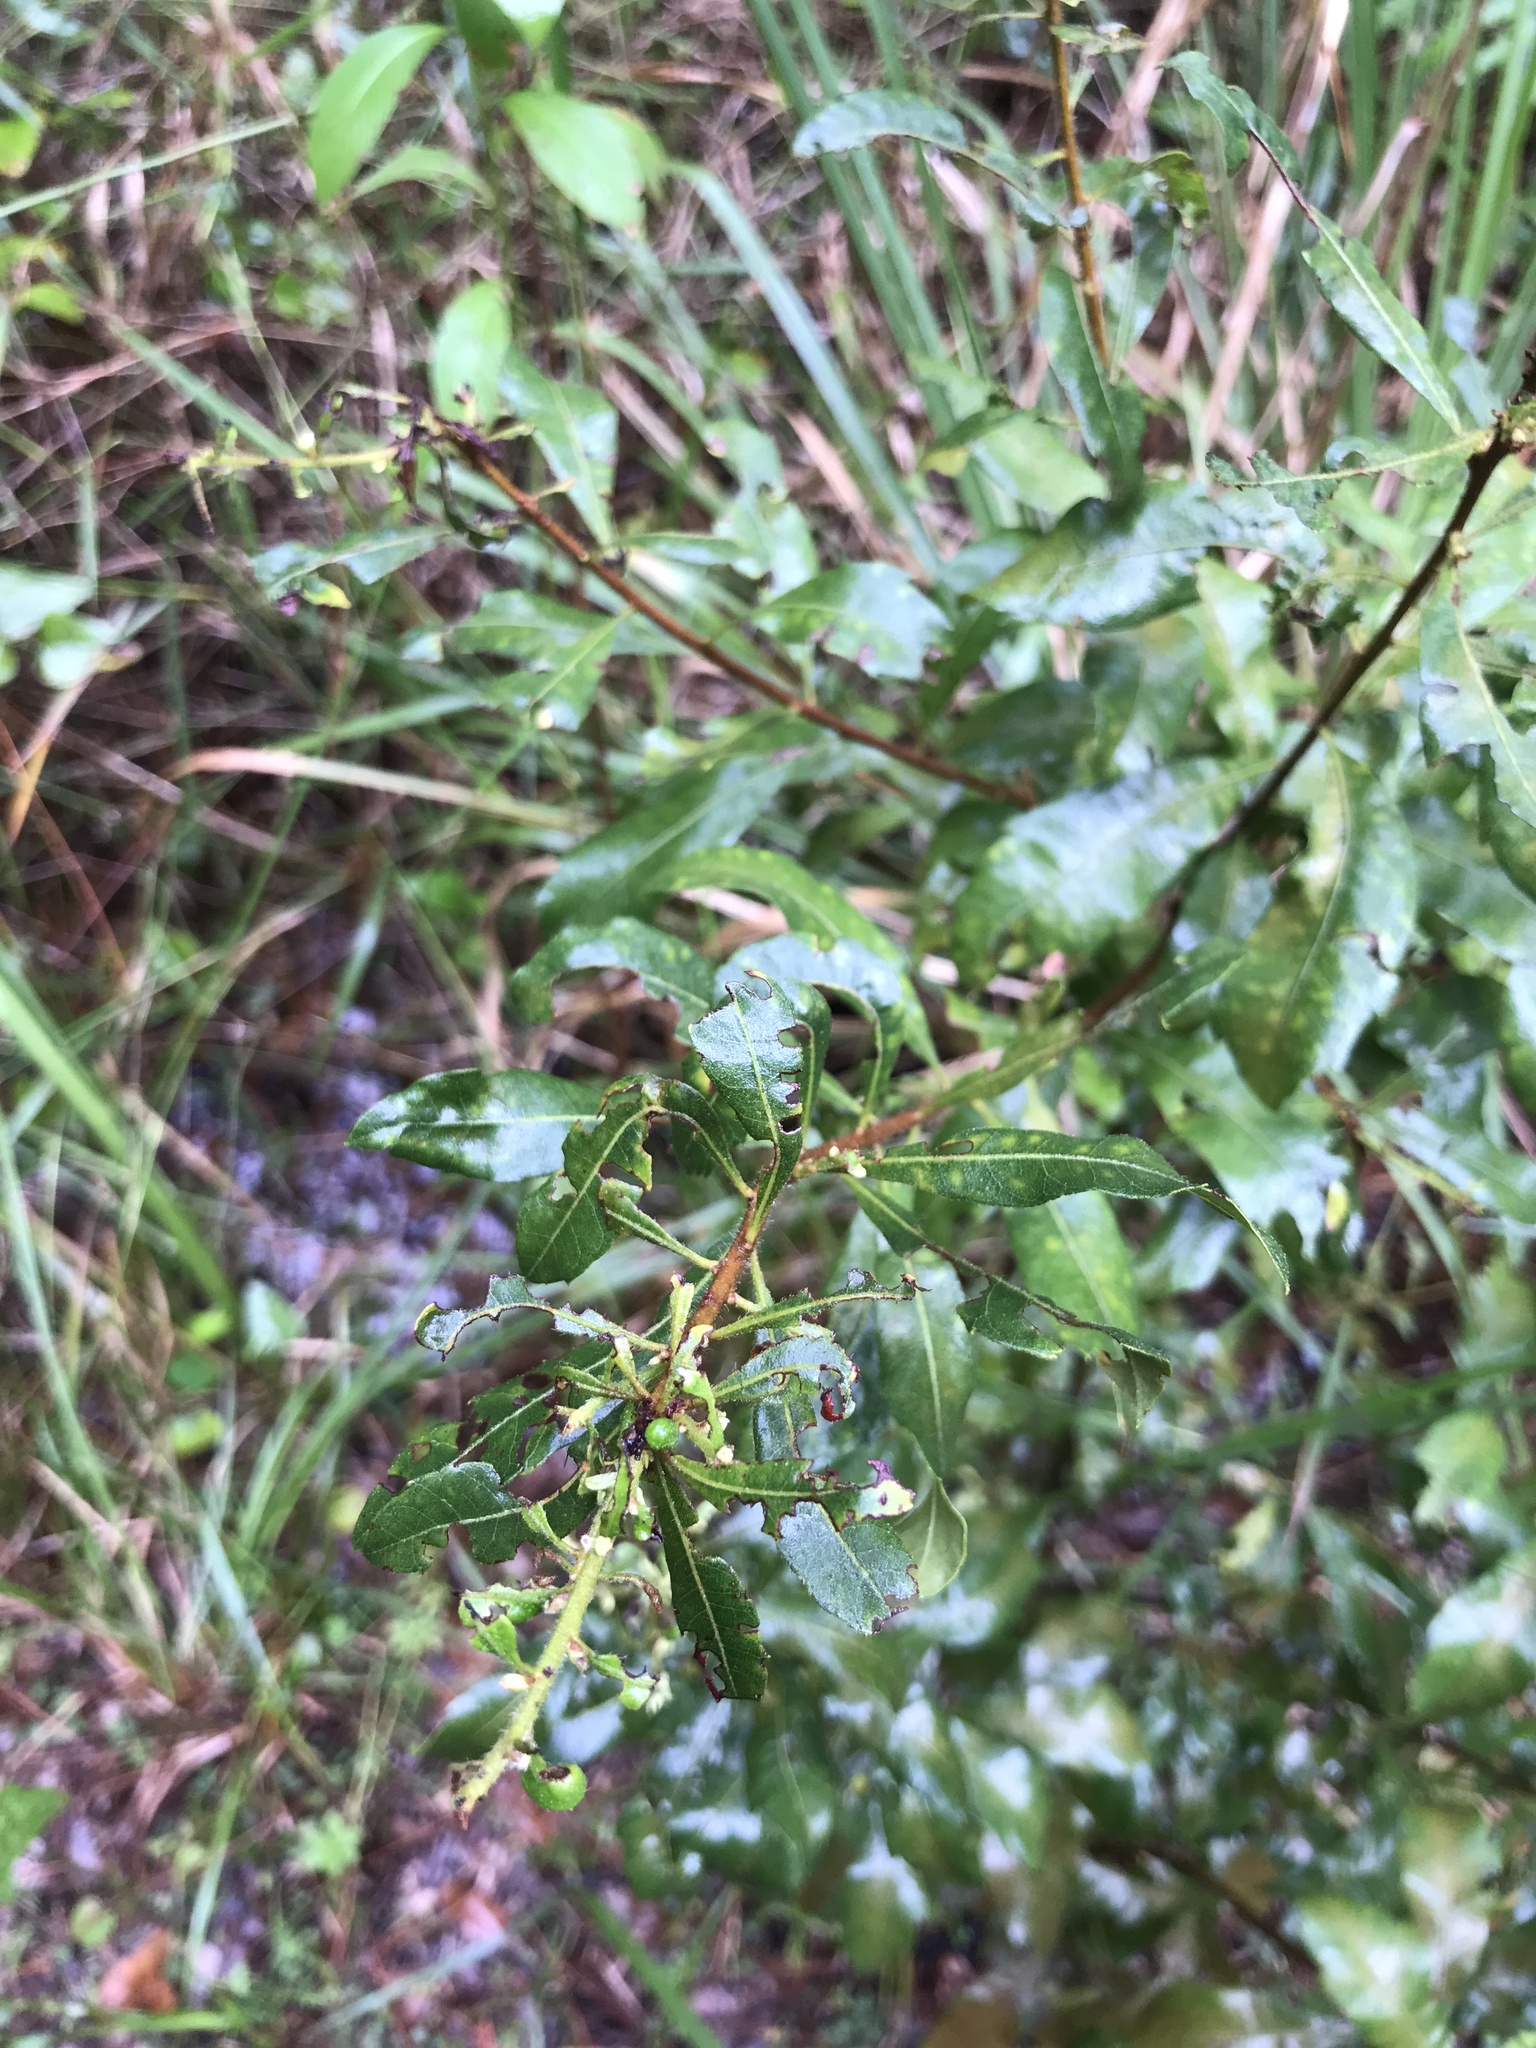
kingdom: Plantae
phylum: Tracheophyta
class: Magnoliopsida
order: Fagales
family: Myricaceae
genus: Morella
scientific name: Morella cerifera
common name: Wax myrtle
